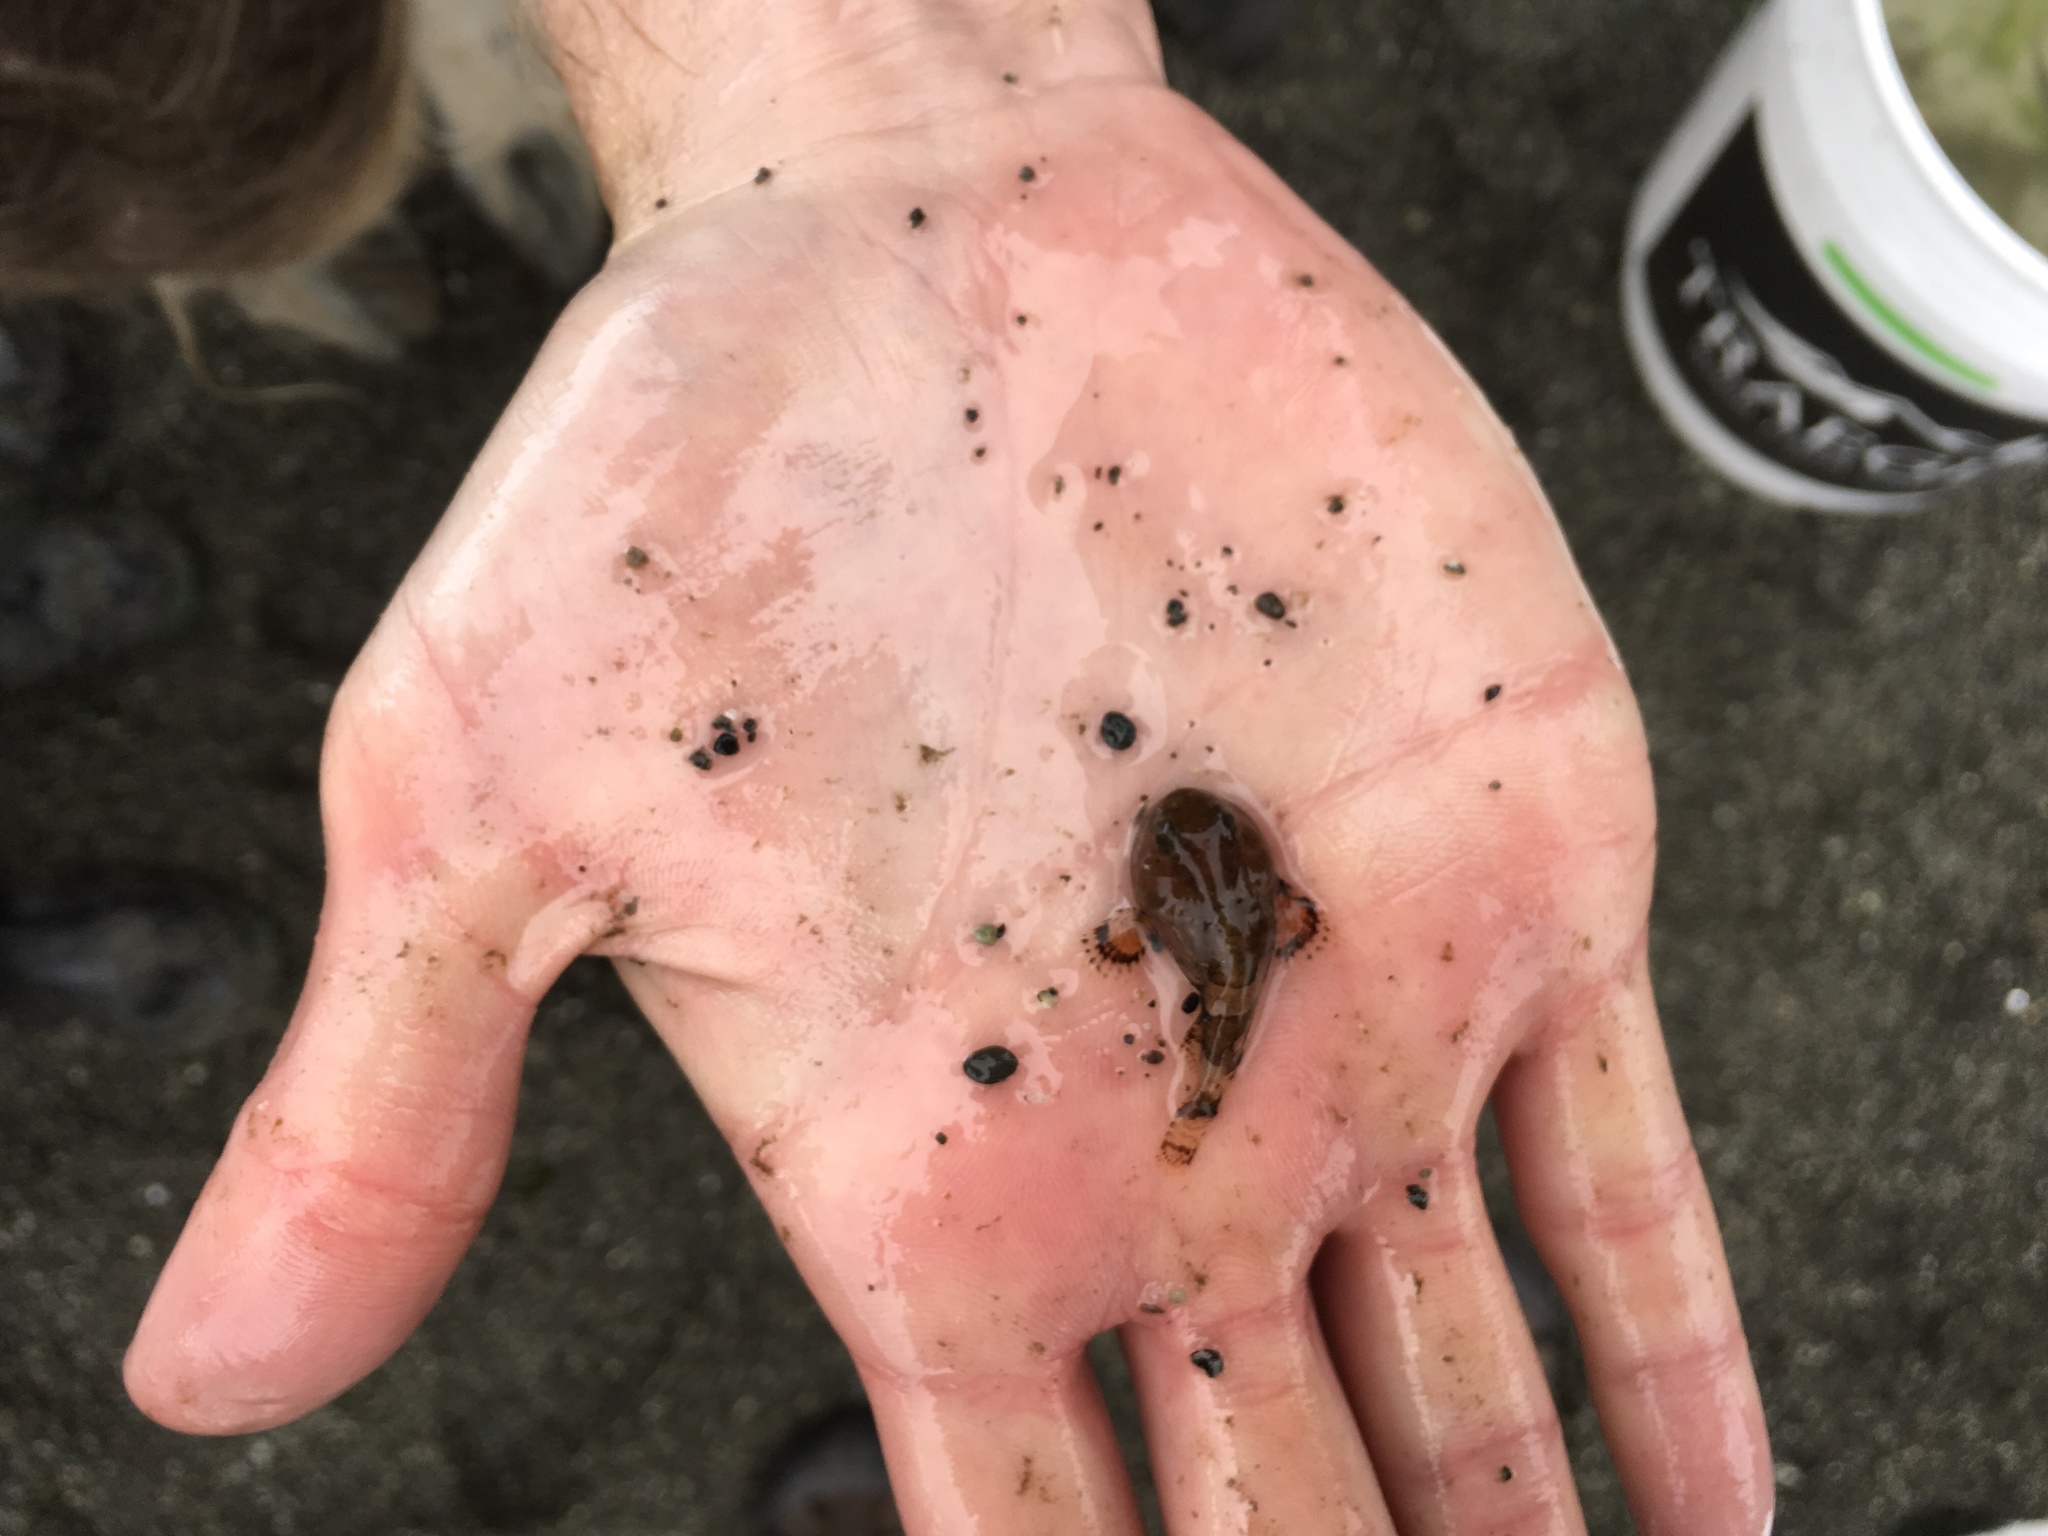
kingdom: Animalia
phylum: Chordata
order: Scorpaeniformes
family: Psychrolutidae
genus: Psychrolutes
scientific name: Psychrolutes paradoxus
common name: Tadpole sculpin
